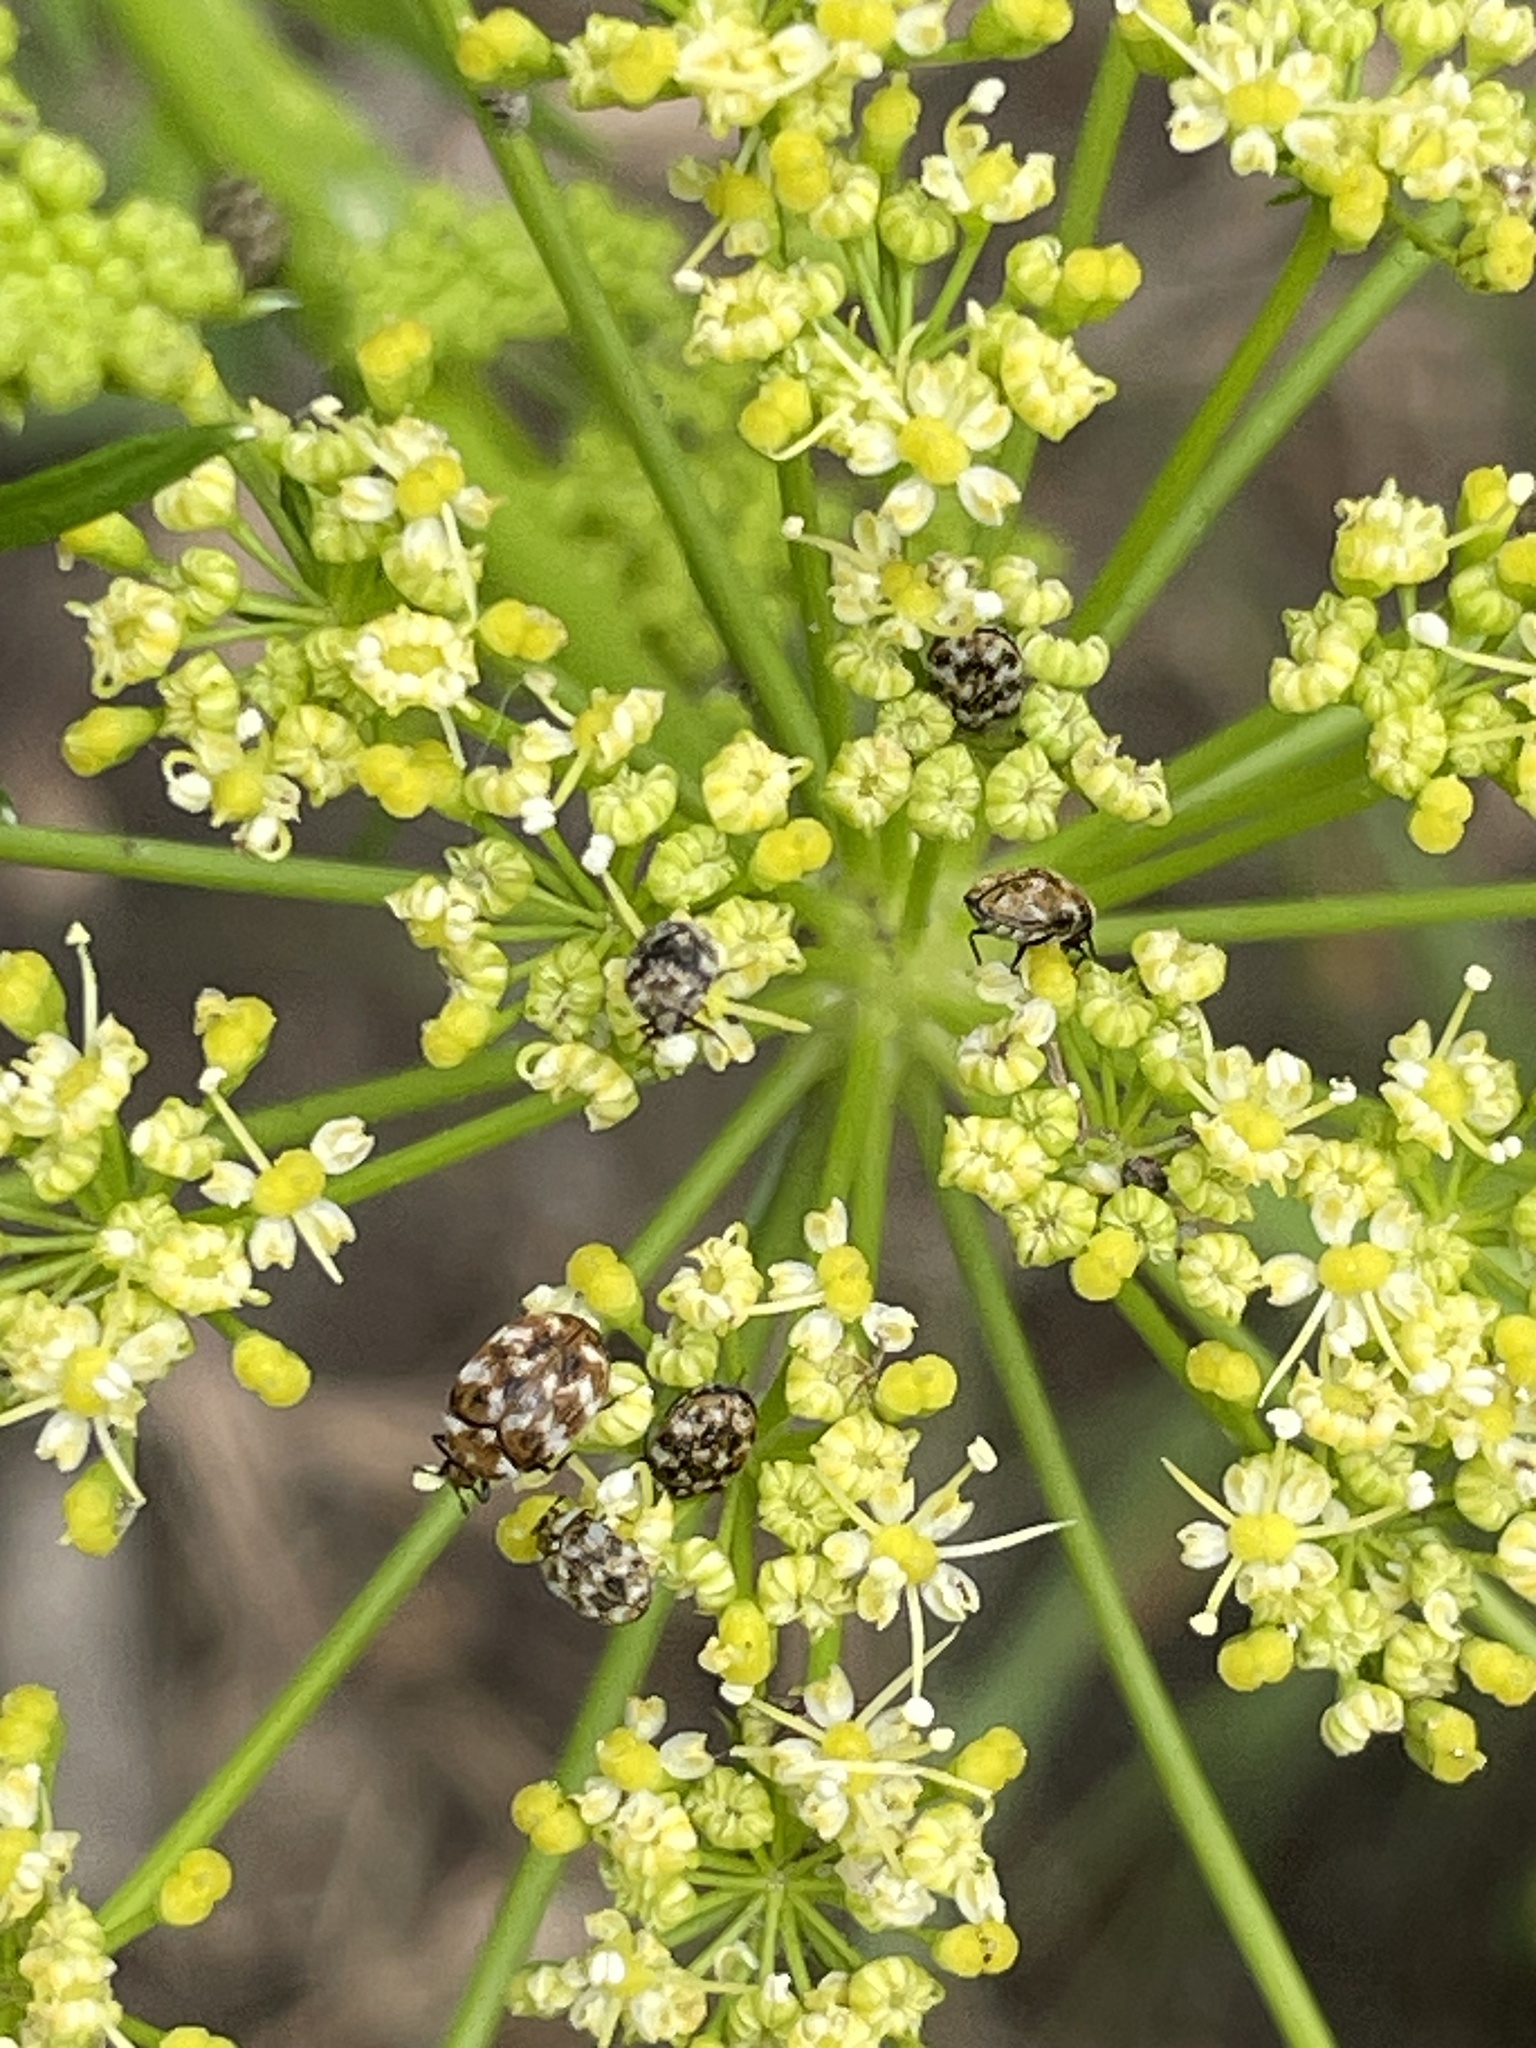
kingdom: Animalia
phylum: Arthropoda
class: Insecta
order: Coleoptera
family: Dermestidae
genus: Anthrenus
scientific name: Anthrenus verbasci
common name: Varied carpet beetle
